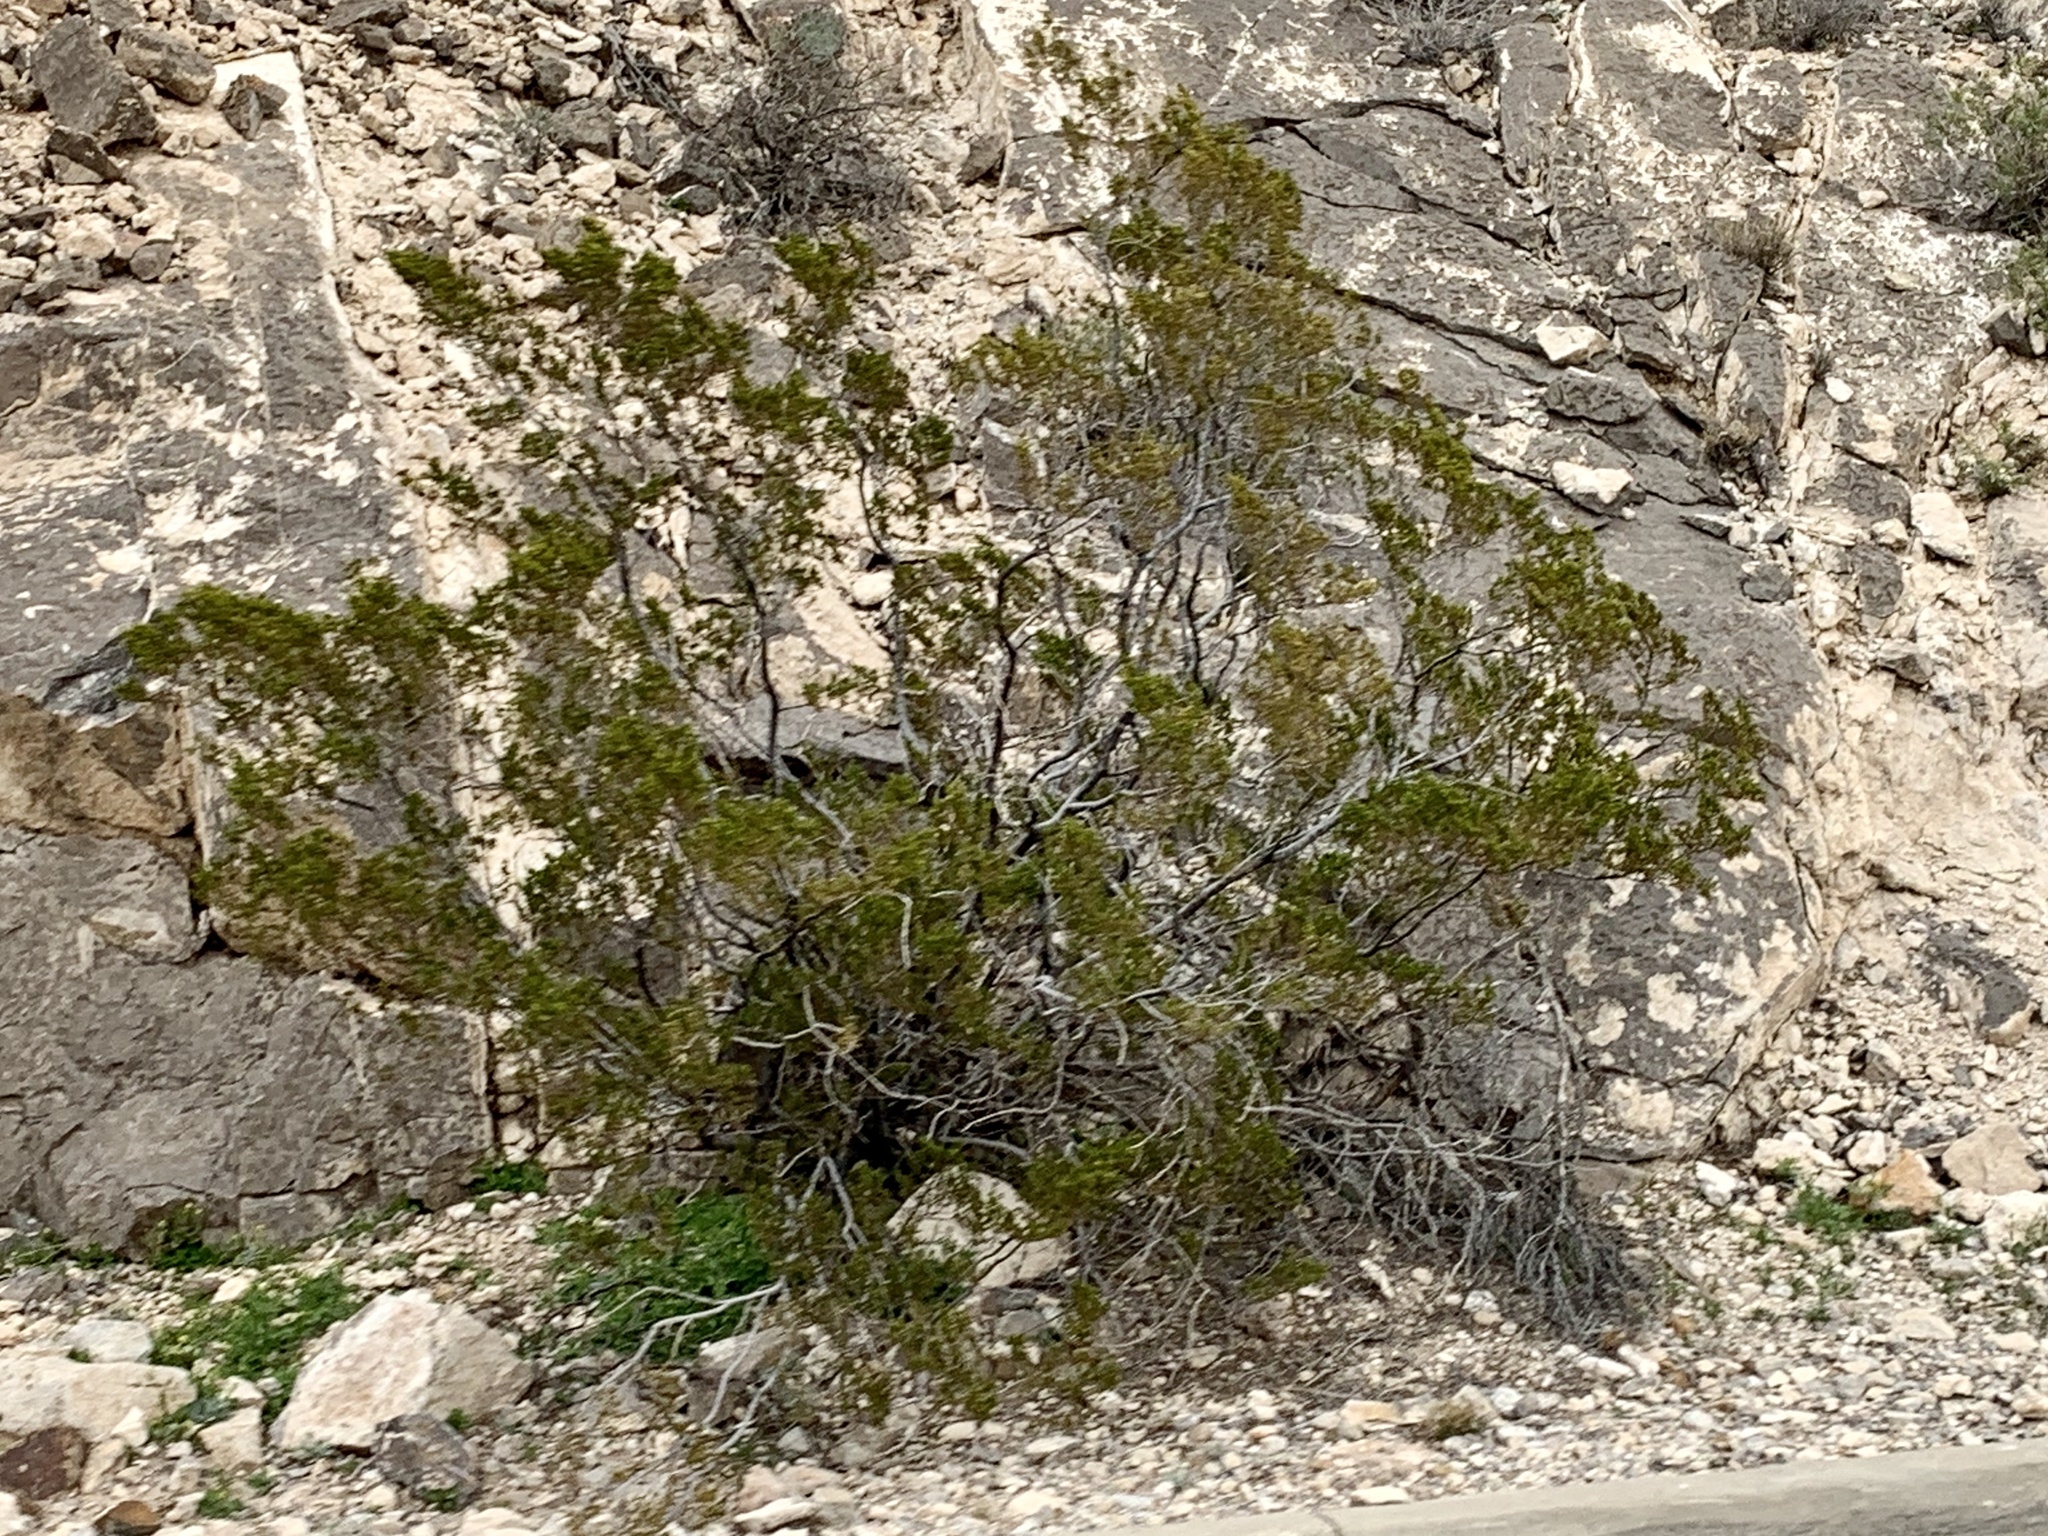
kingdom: Plantae
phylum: Tracheophyta
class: Magnoliopsida
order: Zygophyllales
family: Zygophyllaceae
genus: Larrea
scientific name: Larrea tridentata
